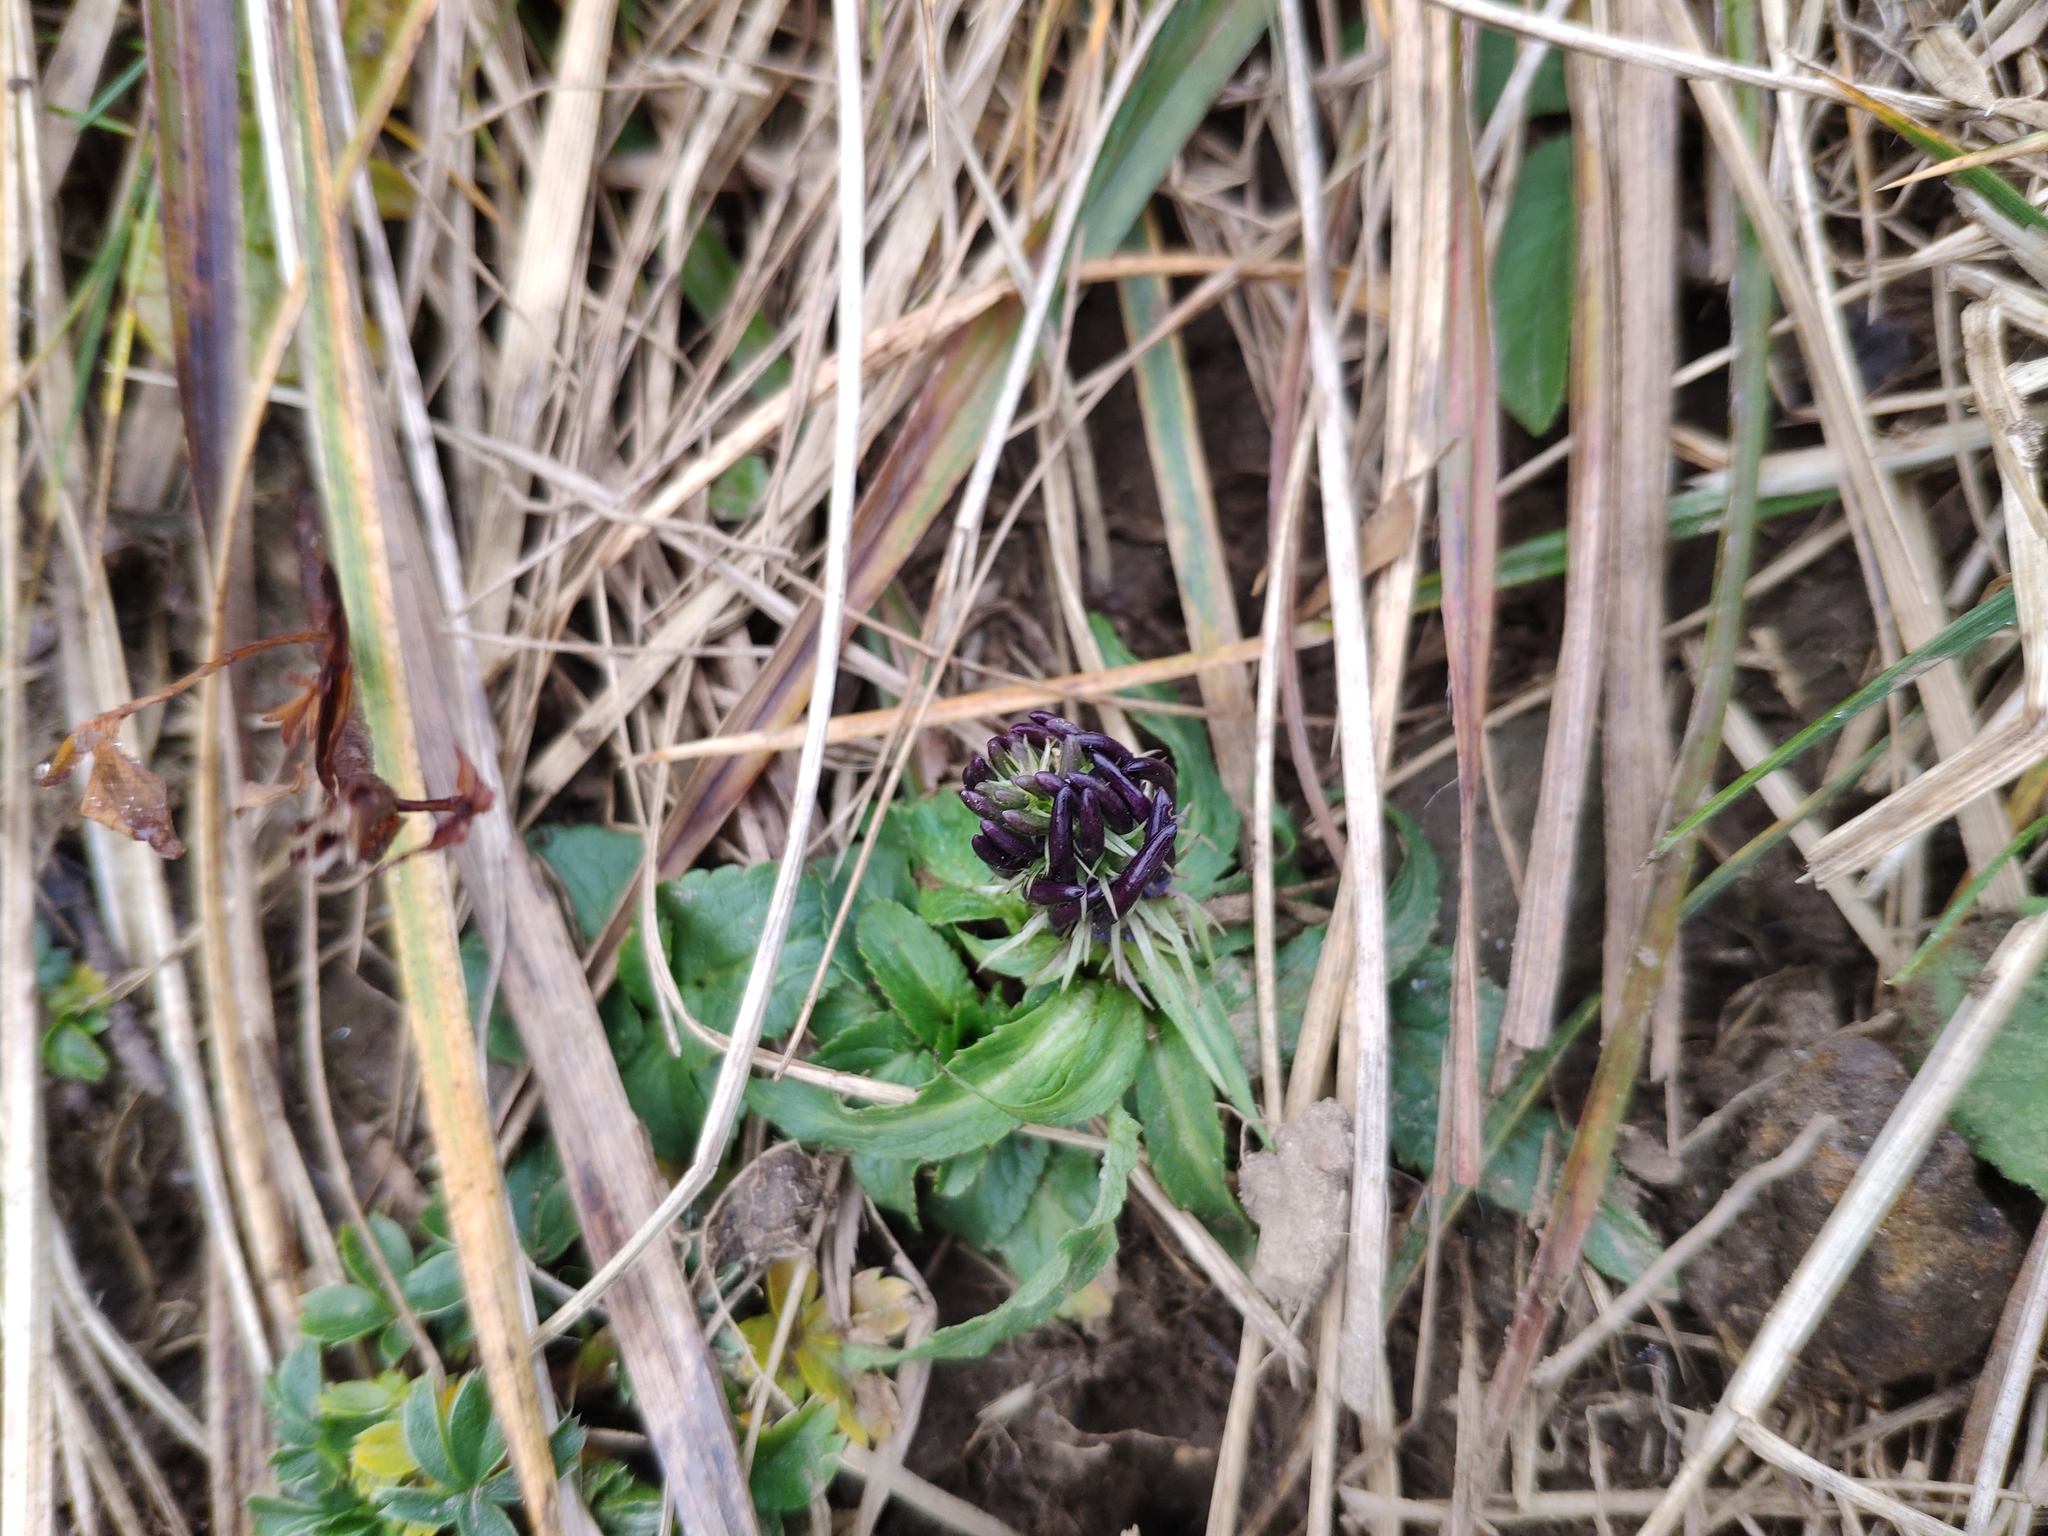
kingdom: Plantae
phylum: Tracheophyta
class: Magnoliopsida
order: Asterales
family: Campanulaceae
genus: Phyteuma
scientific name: Phyteuma vagneri
